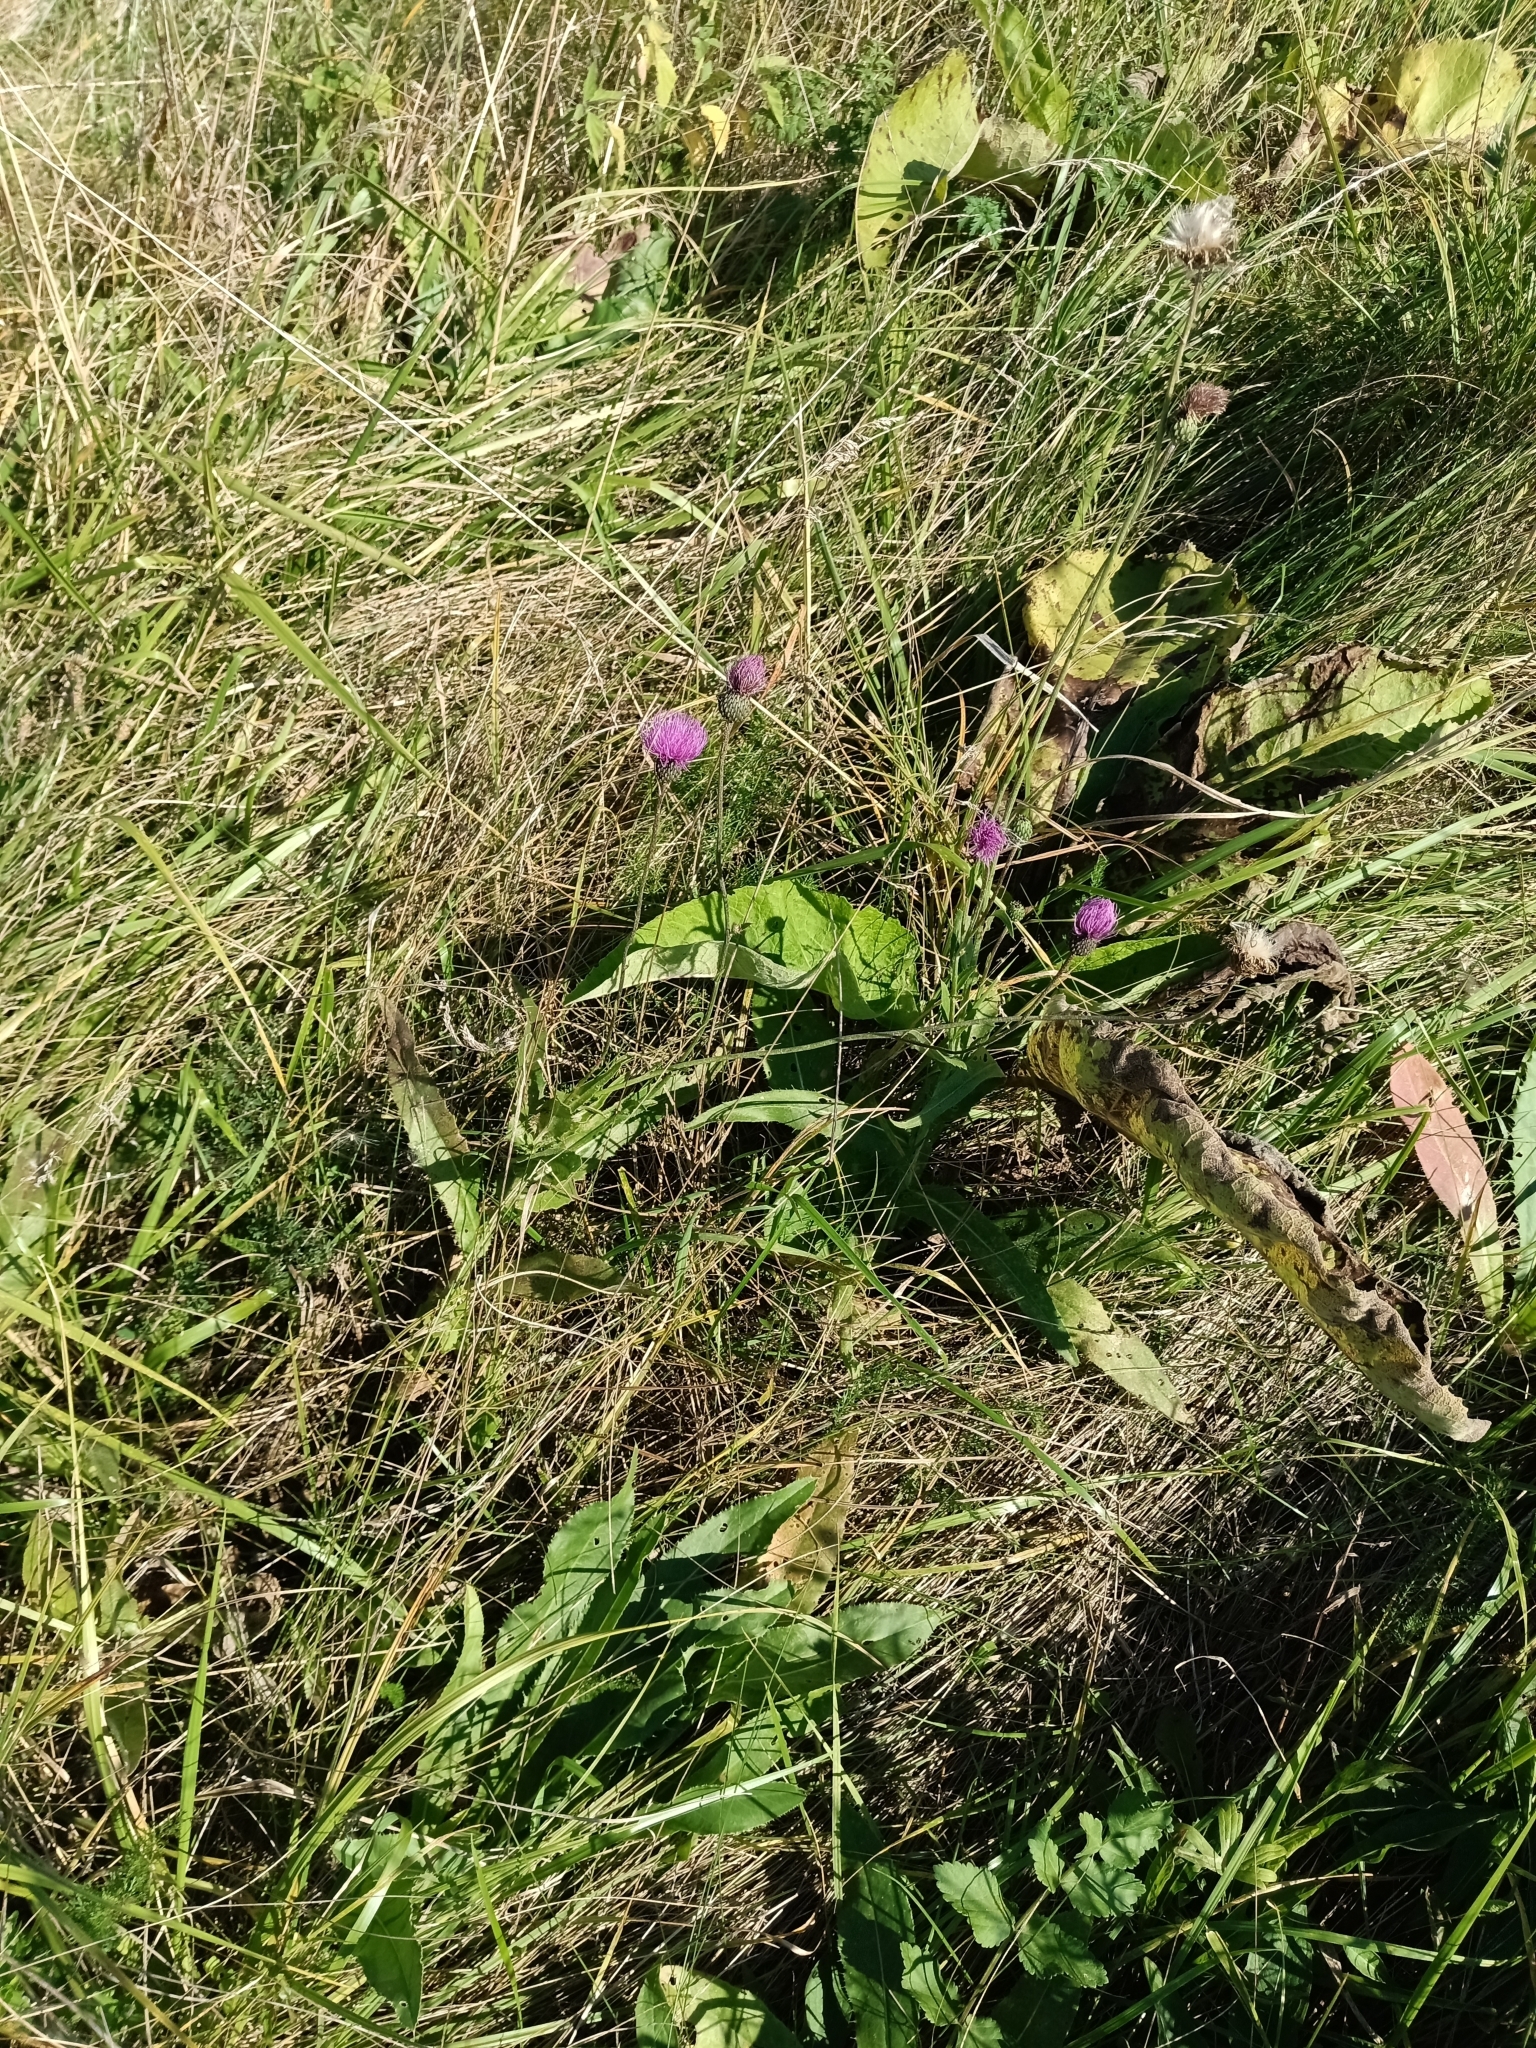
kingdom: Plantae
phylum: Tracheophyta
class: Magnoliopsida
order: Asterales
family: Asteraceae
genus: Cirsium
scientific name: Cirsium canum
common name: Queen anne's thistle
